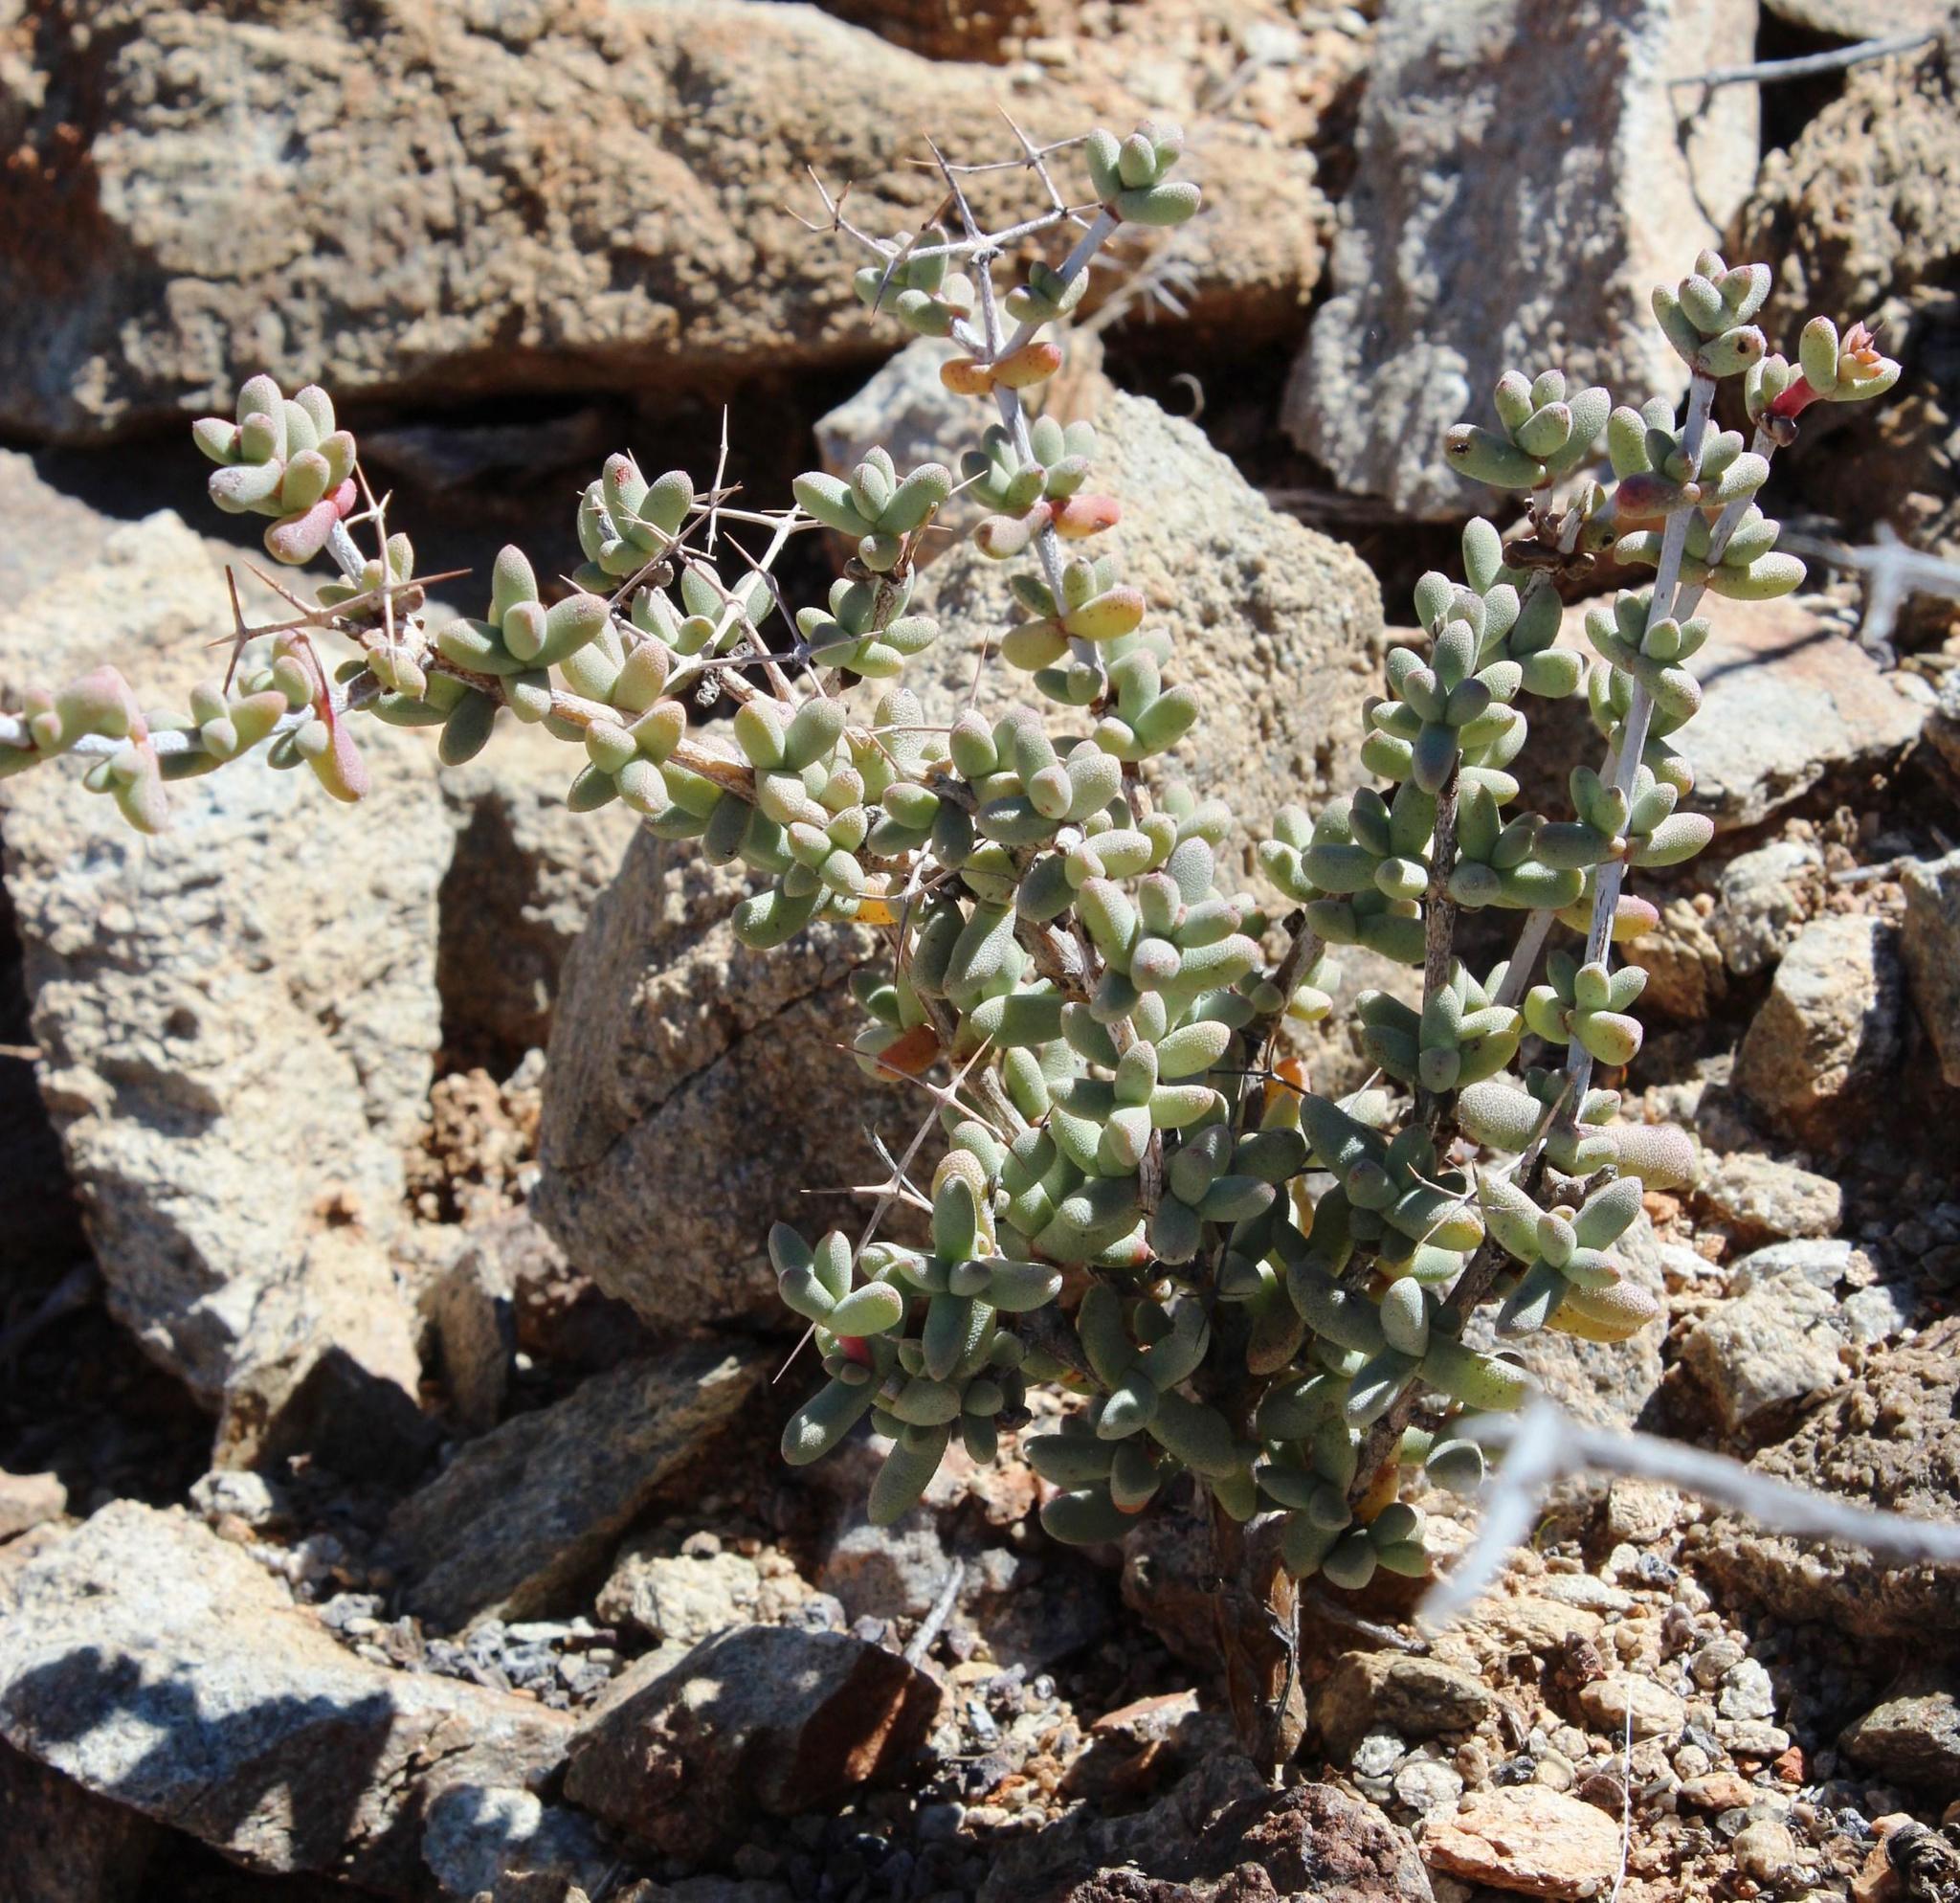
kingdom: Plantae
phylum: Tracheophyta
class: Magnoliopsida
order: Caryophyllales
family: Aizoaceae
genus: Ruschia
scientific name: Ruschia spinosa
